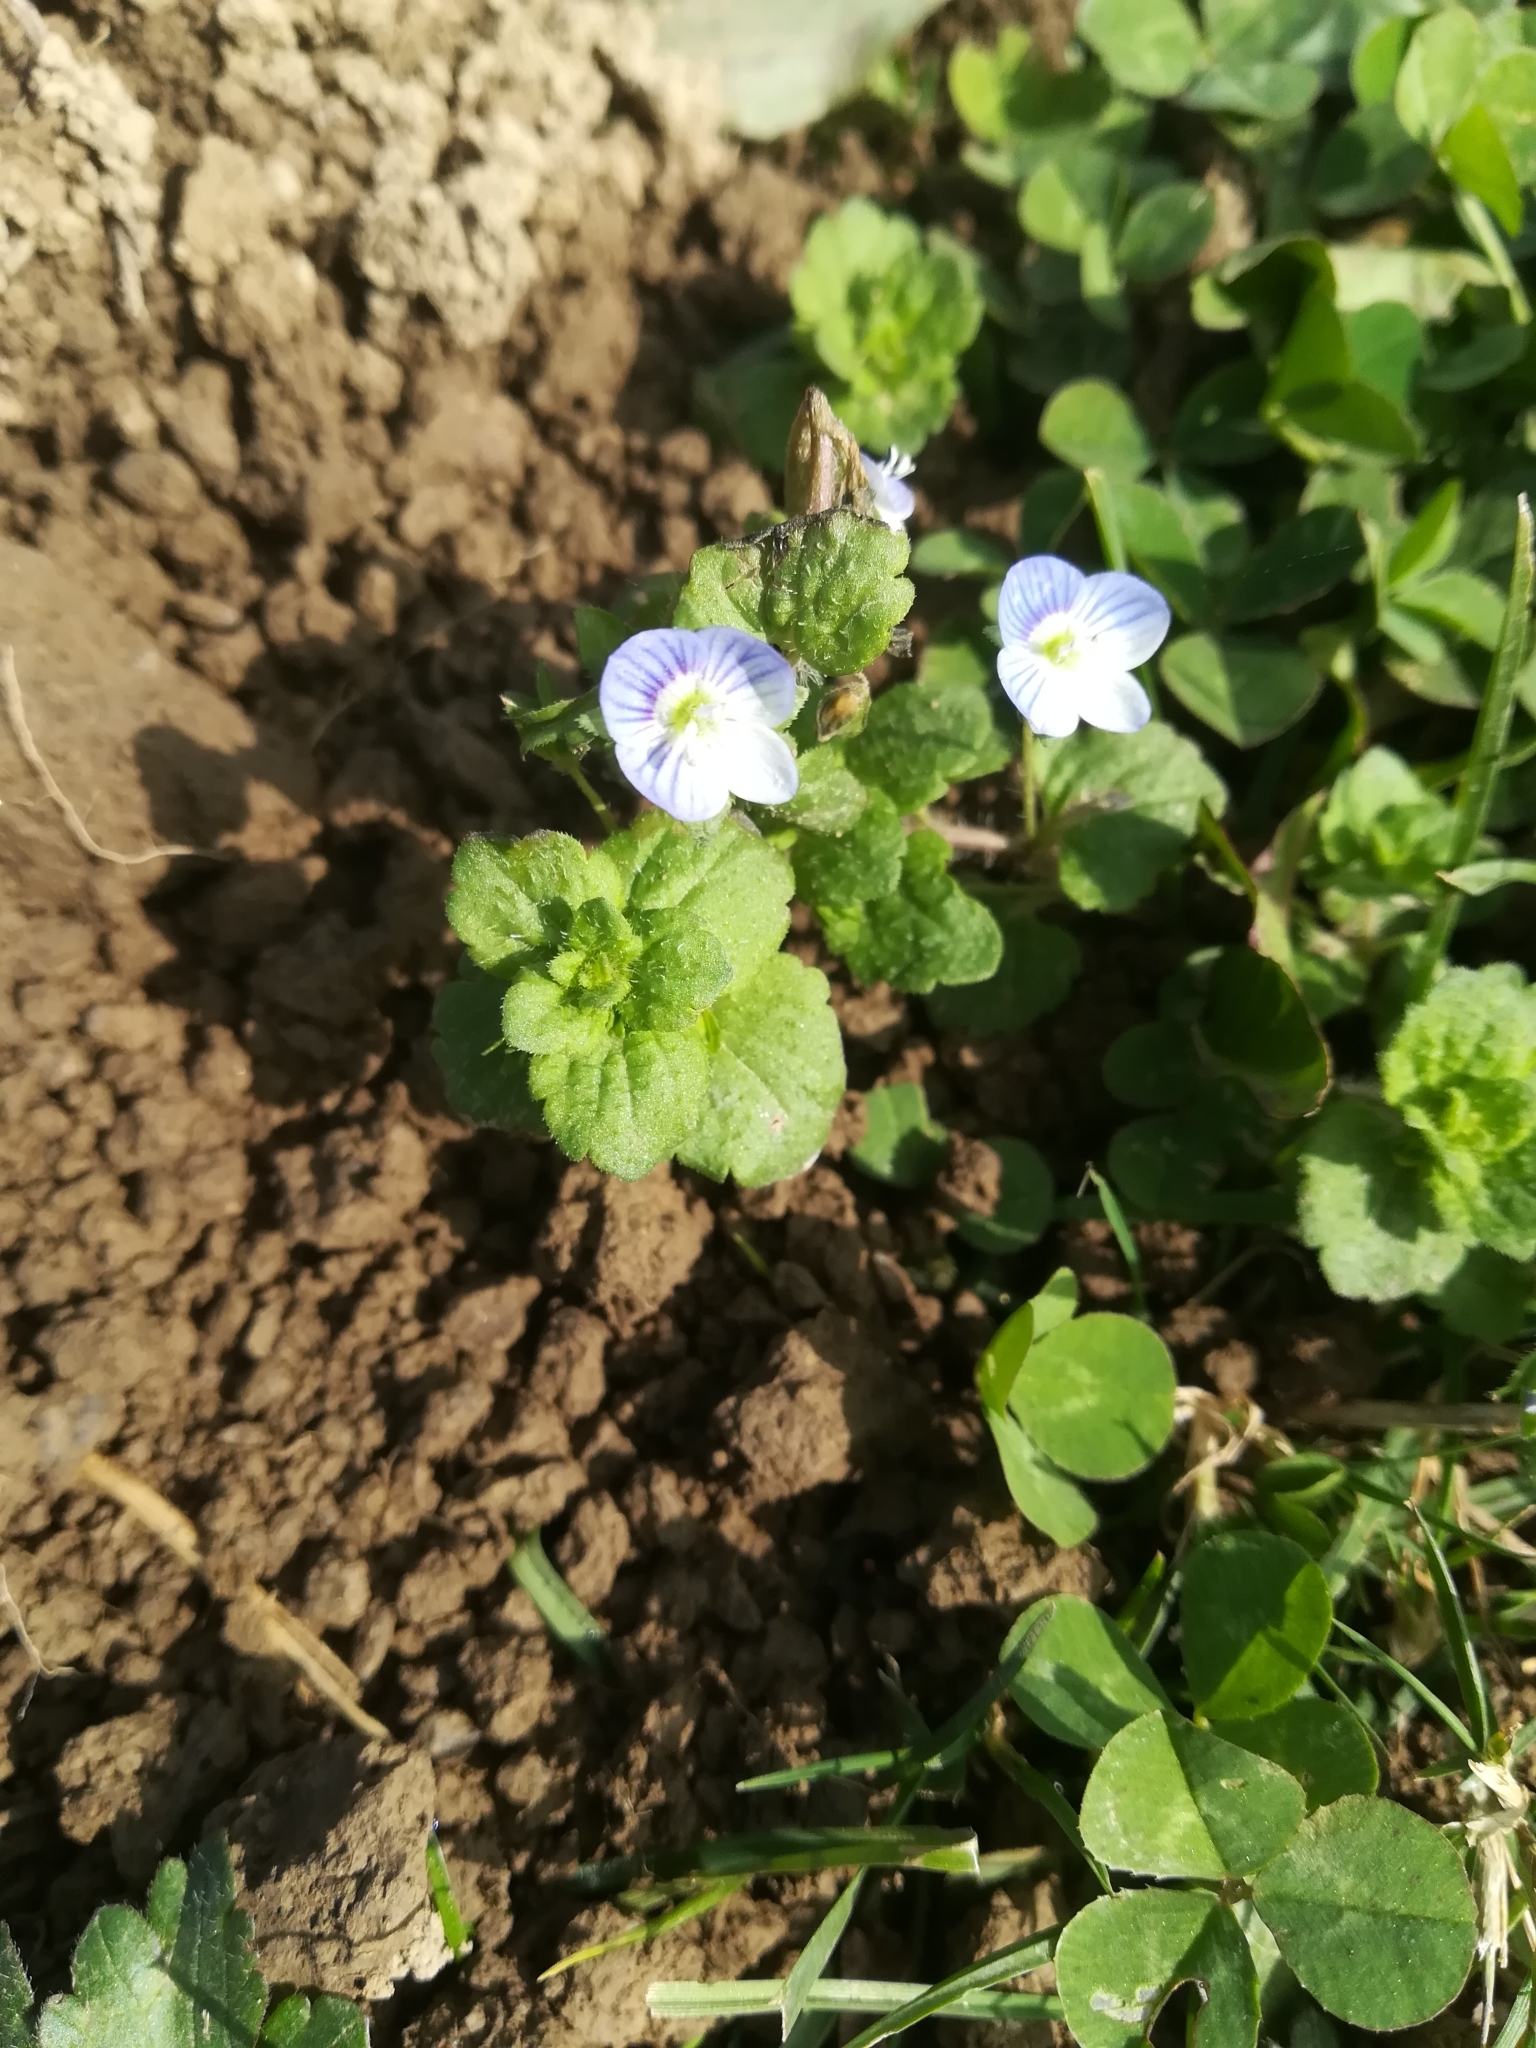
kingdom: Plantae
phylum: Tracheophyta
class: Magnoliopsida
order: Lamiales
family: Plantaginaceae
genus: Veronica
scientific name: Veronica persica
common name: Common field-speedwell
